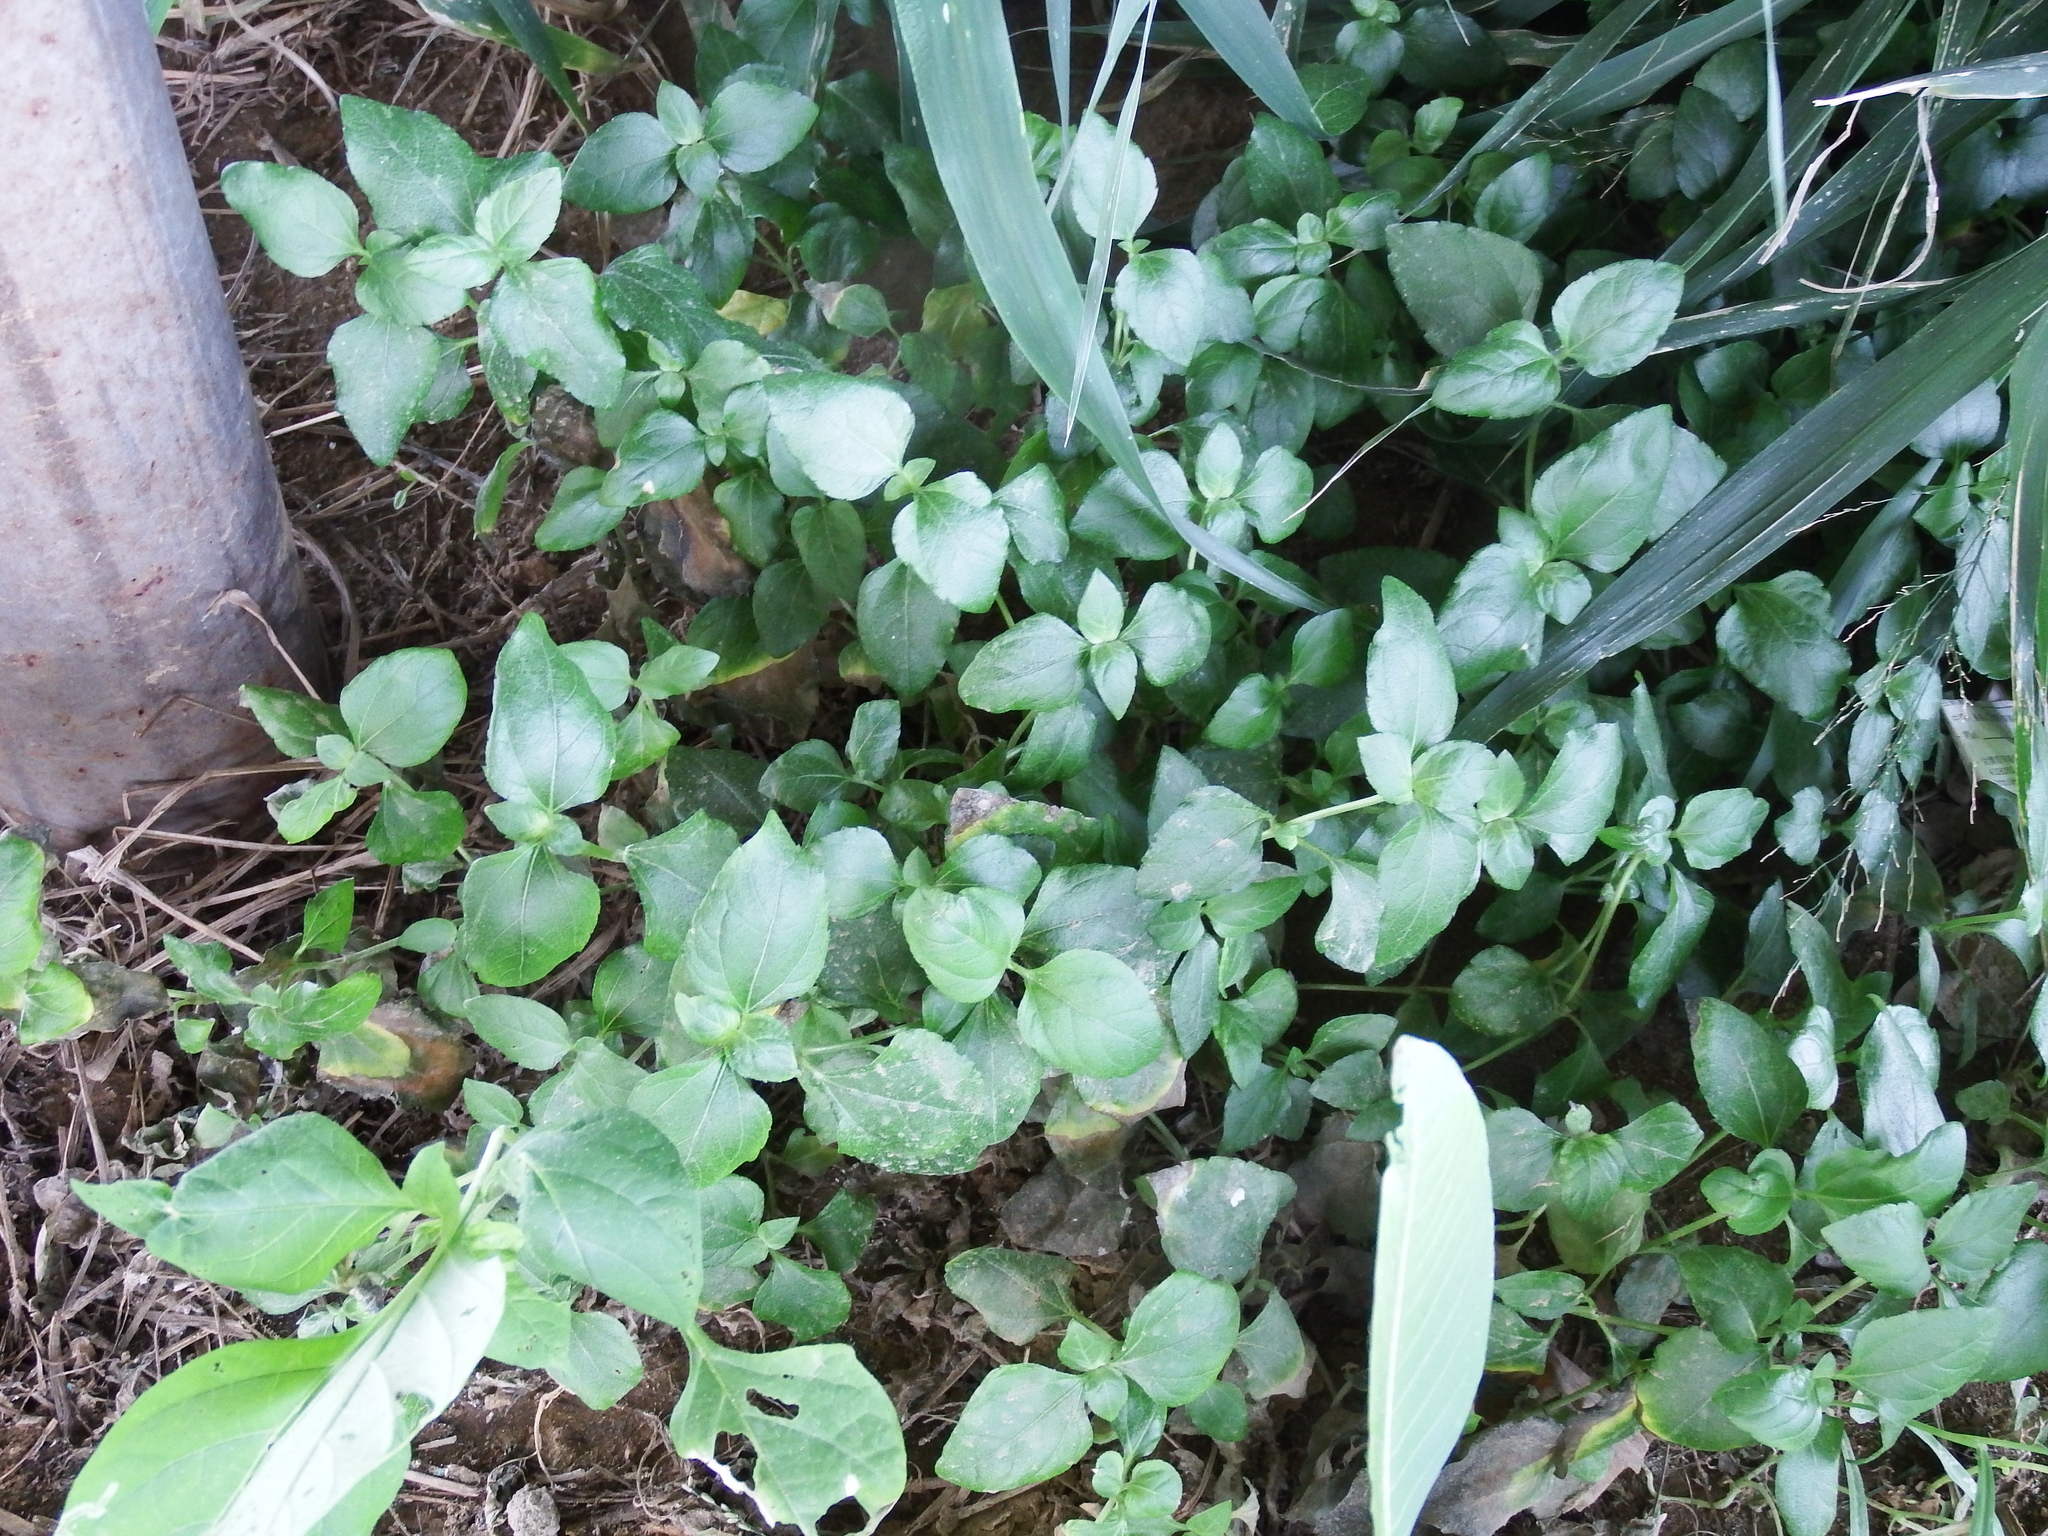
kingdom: Plantae
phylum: Tracheophyta
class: Magnoliopsida
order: Asterales
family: Asteraceae
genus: Calyptocarpus
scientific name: Calyptocarpus vialis
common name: Straggler daisy
